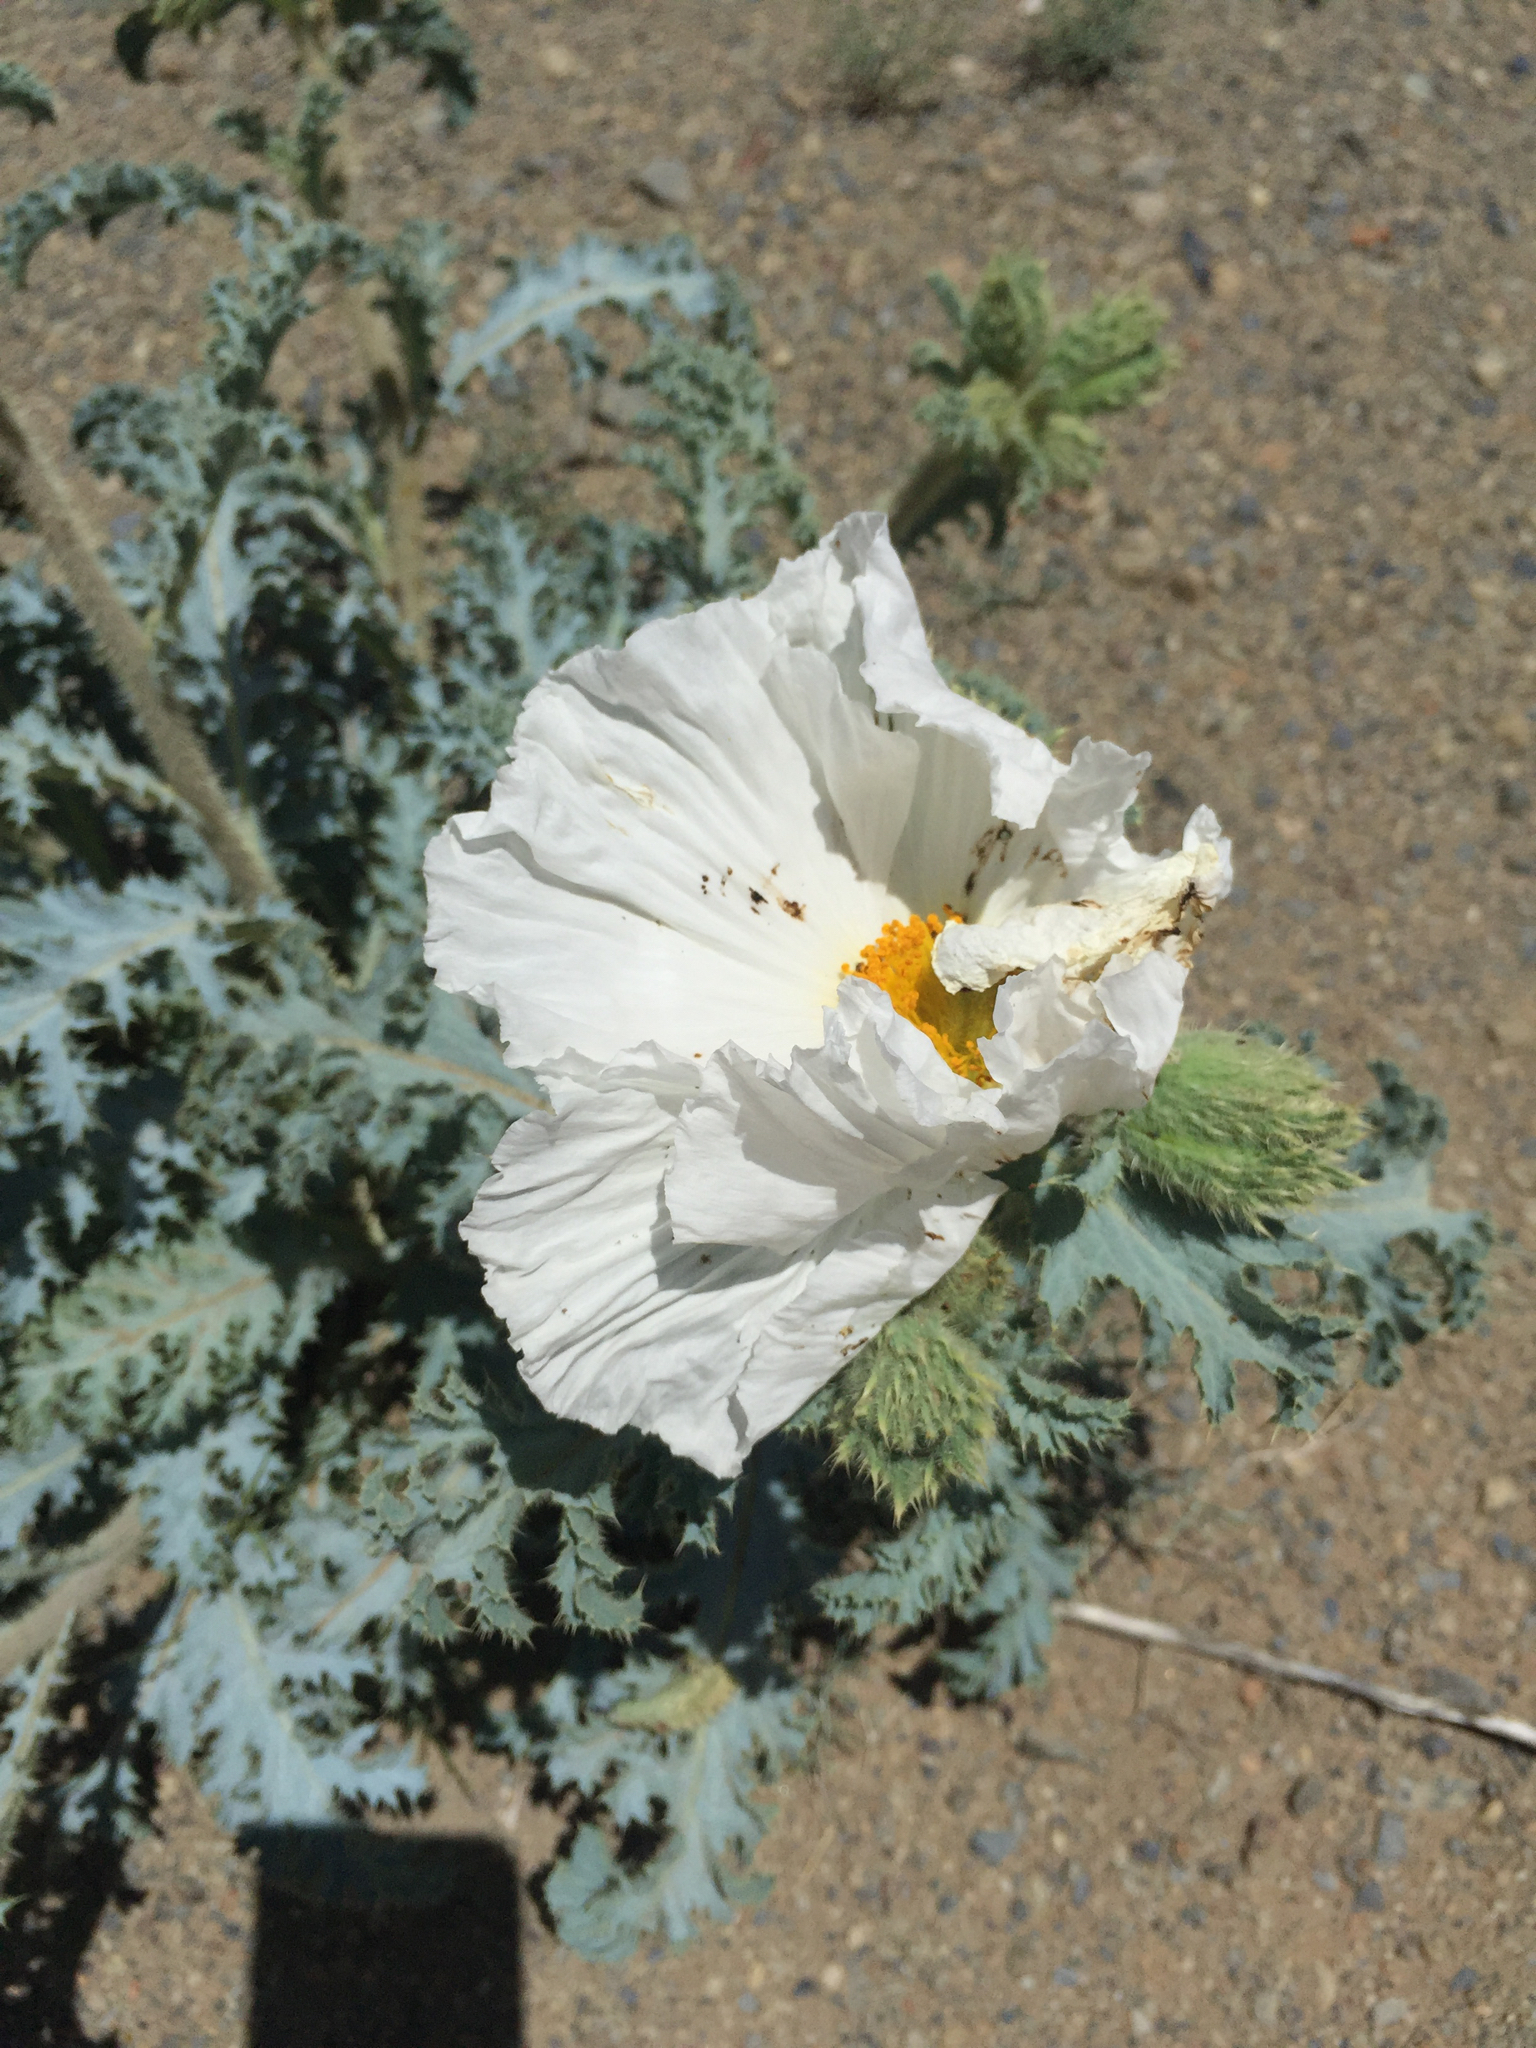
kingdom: Plantae
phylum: Tracheophyta
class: Magnoliopsida
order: Ranunculales
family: Papaveraceae
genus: Argemone
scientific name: Argemone munita
